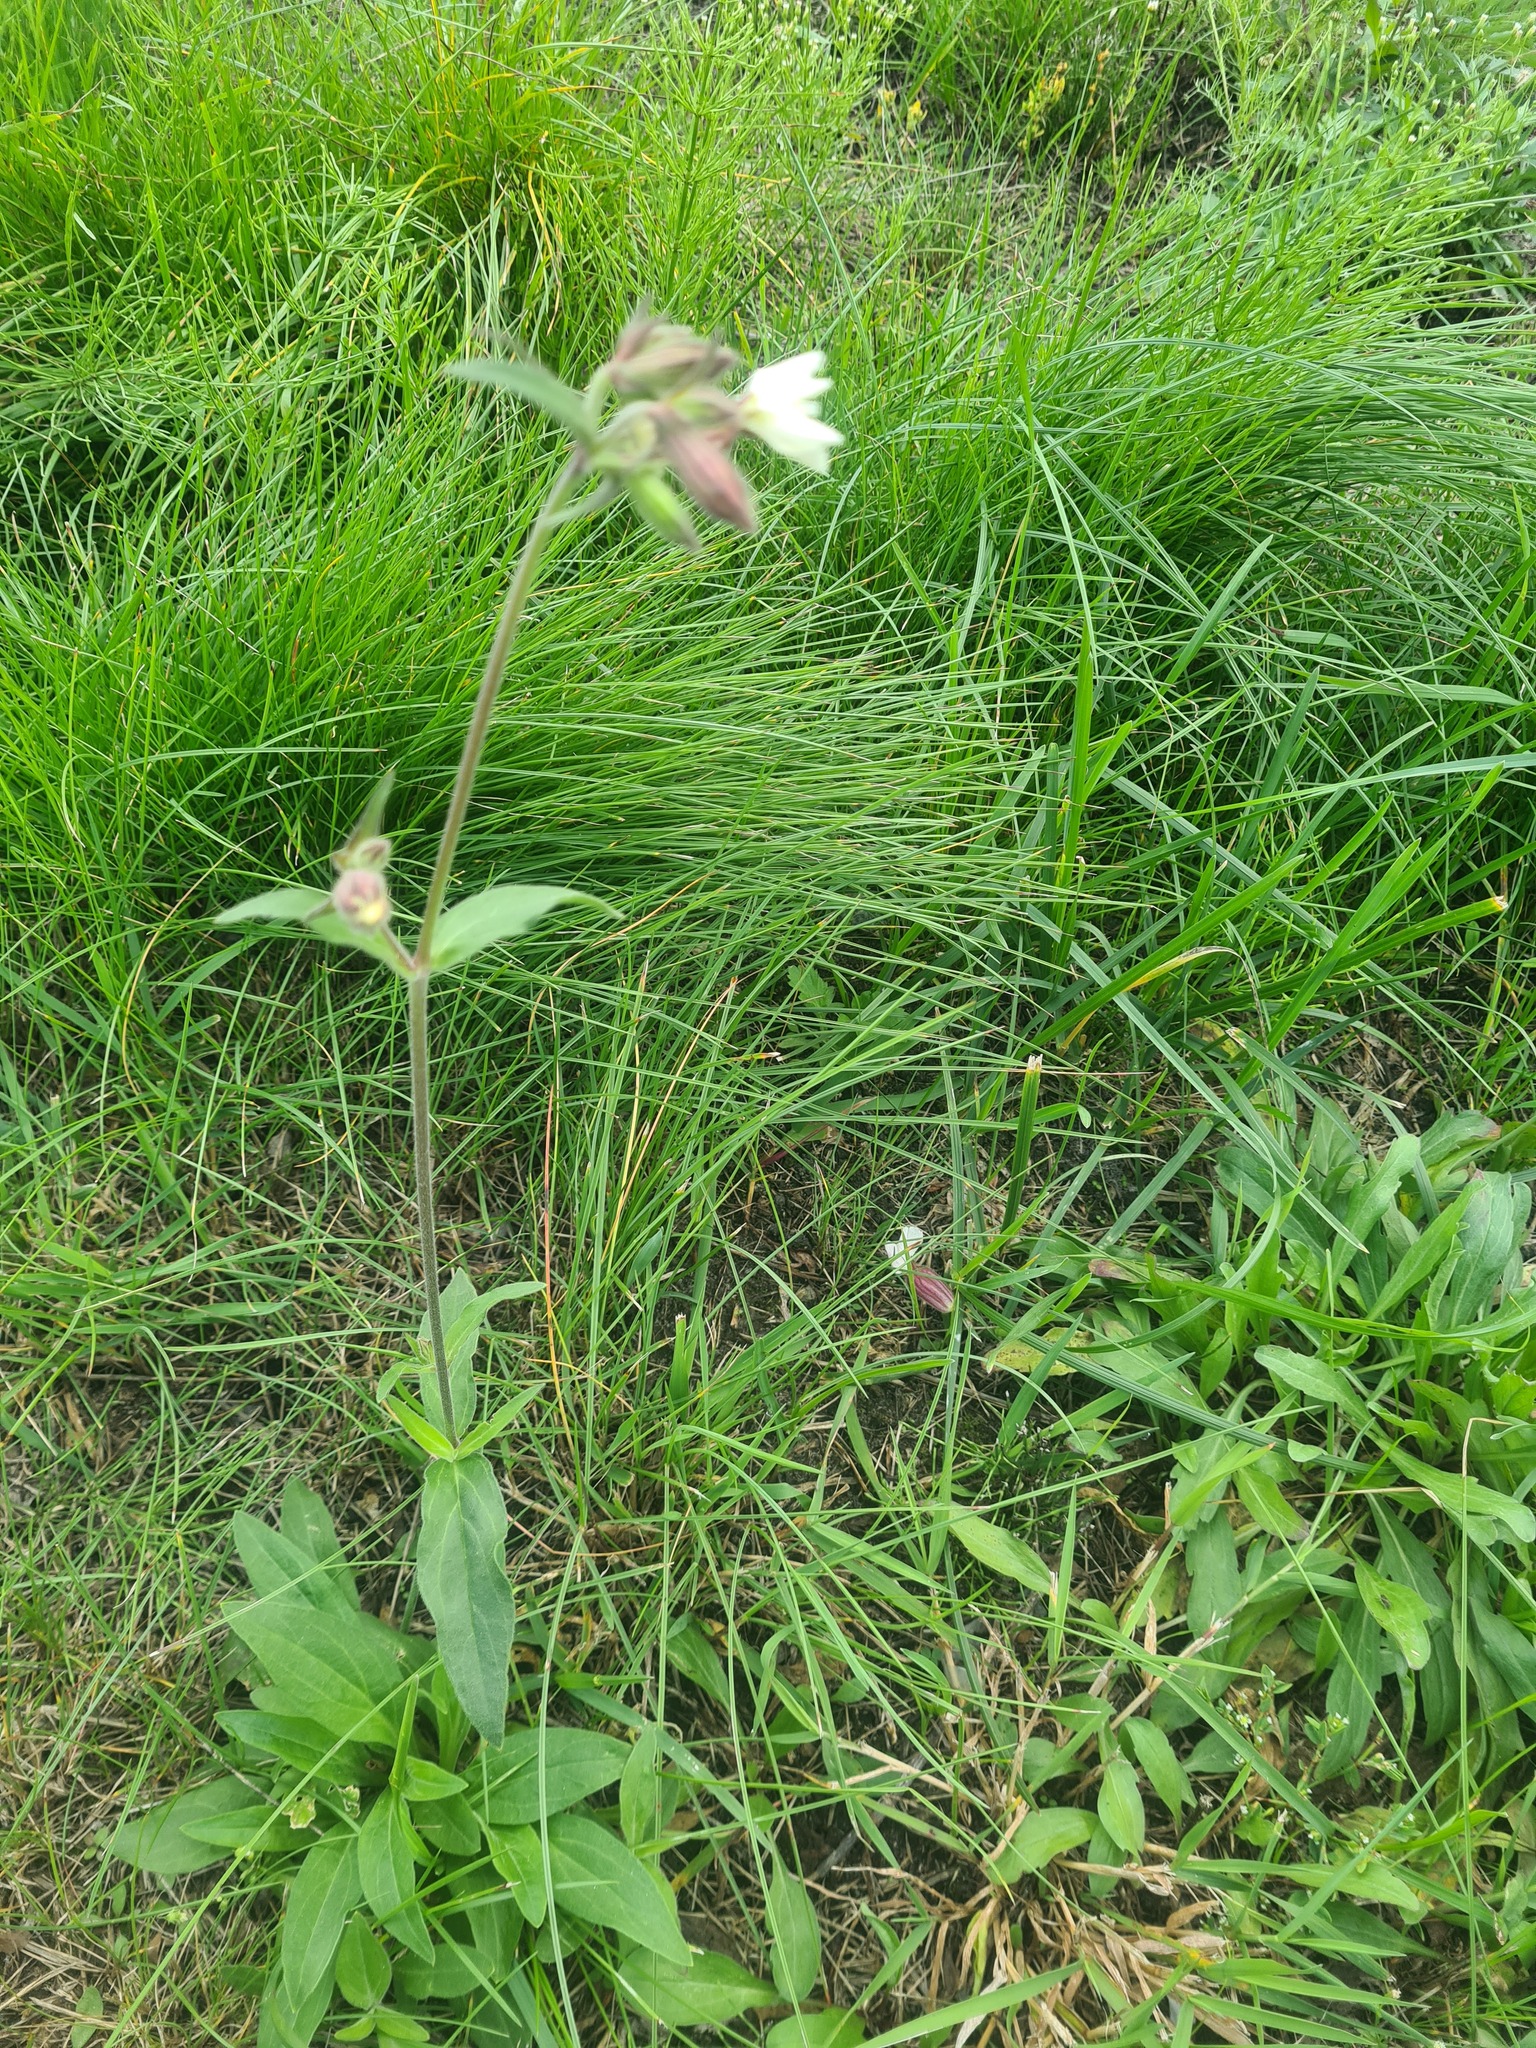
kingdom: Plantae
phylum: Tracheophyta
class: Magnoliopsida
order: Caryophyllales
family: Caryophyllaceae
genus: Silene
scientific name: Silene latifolia
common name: White campion
